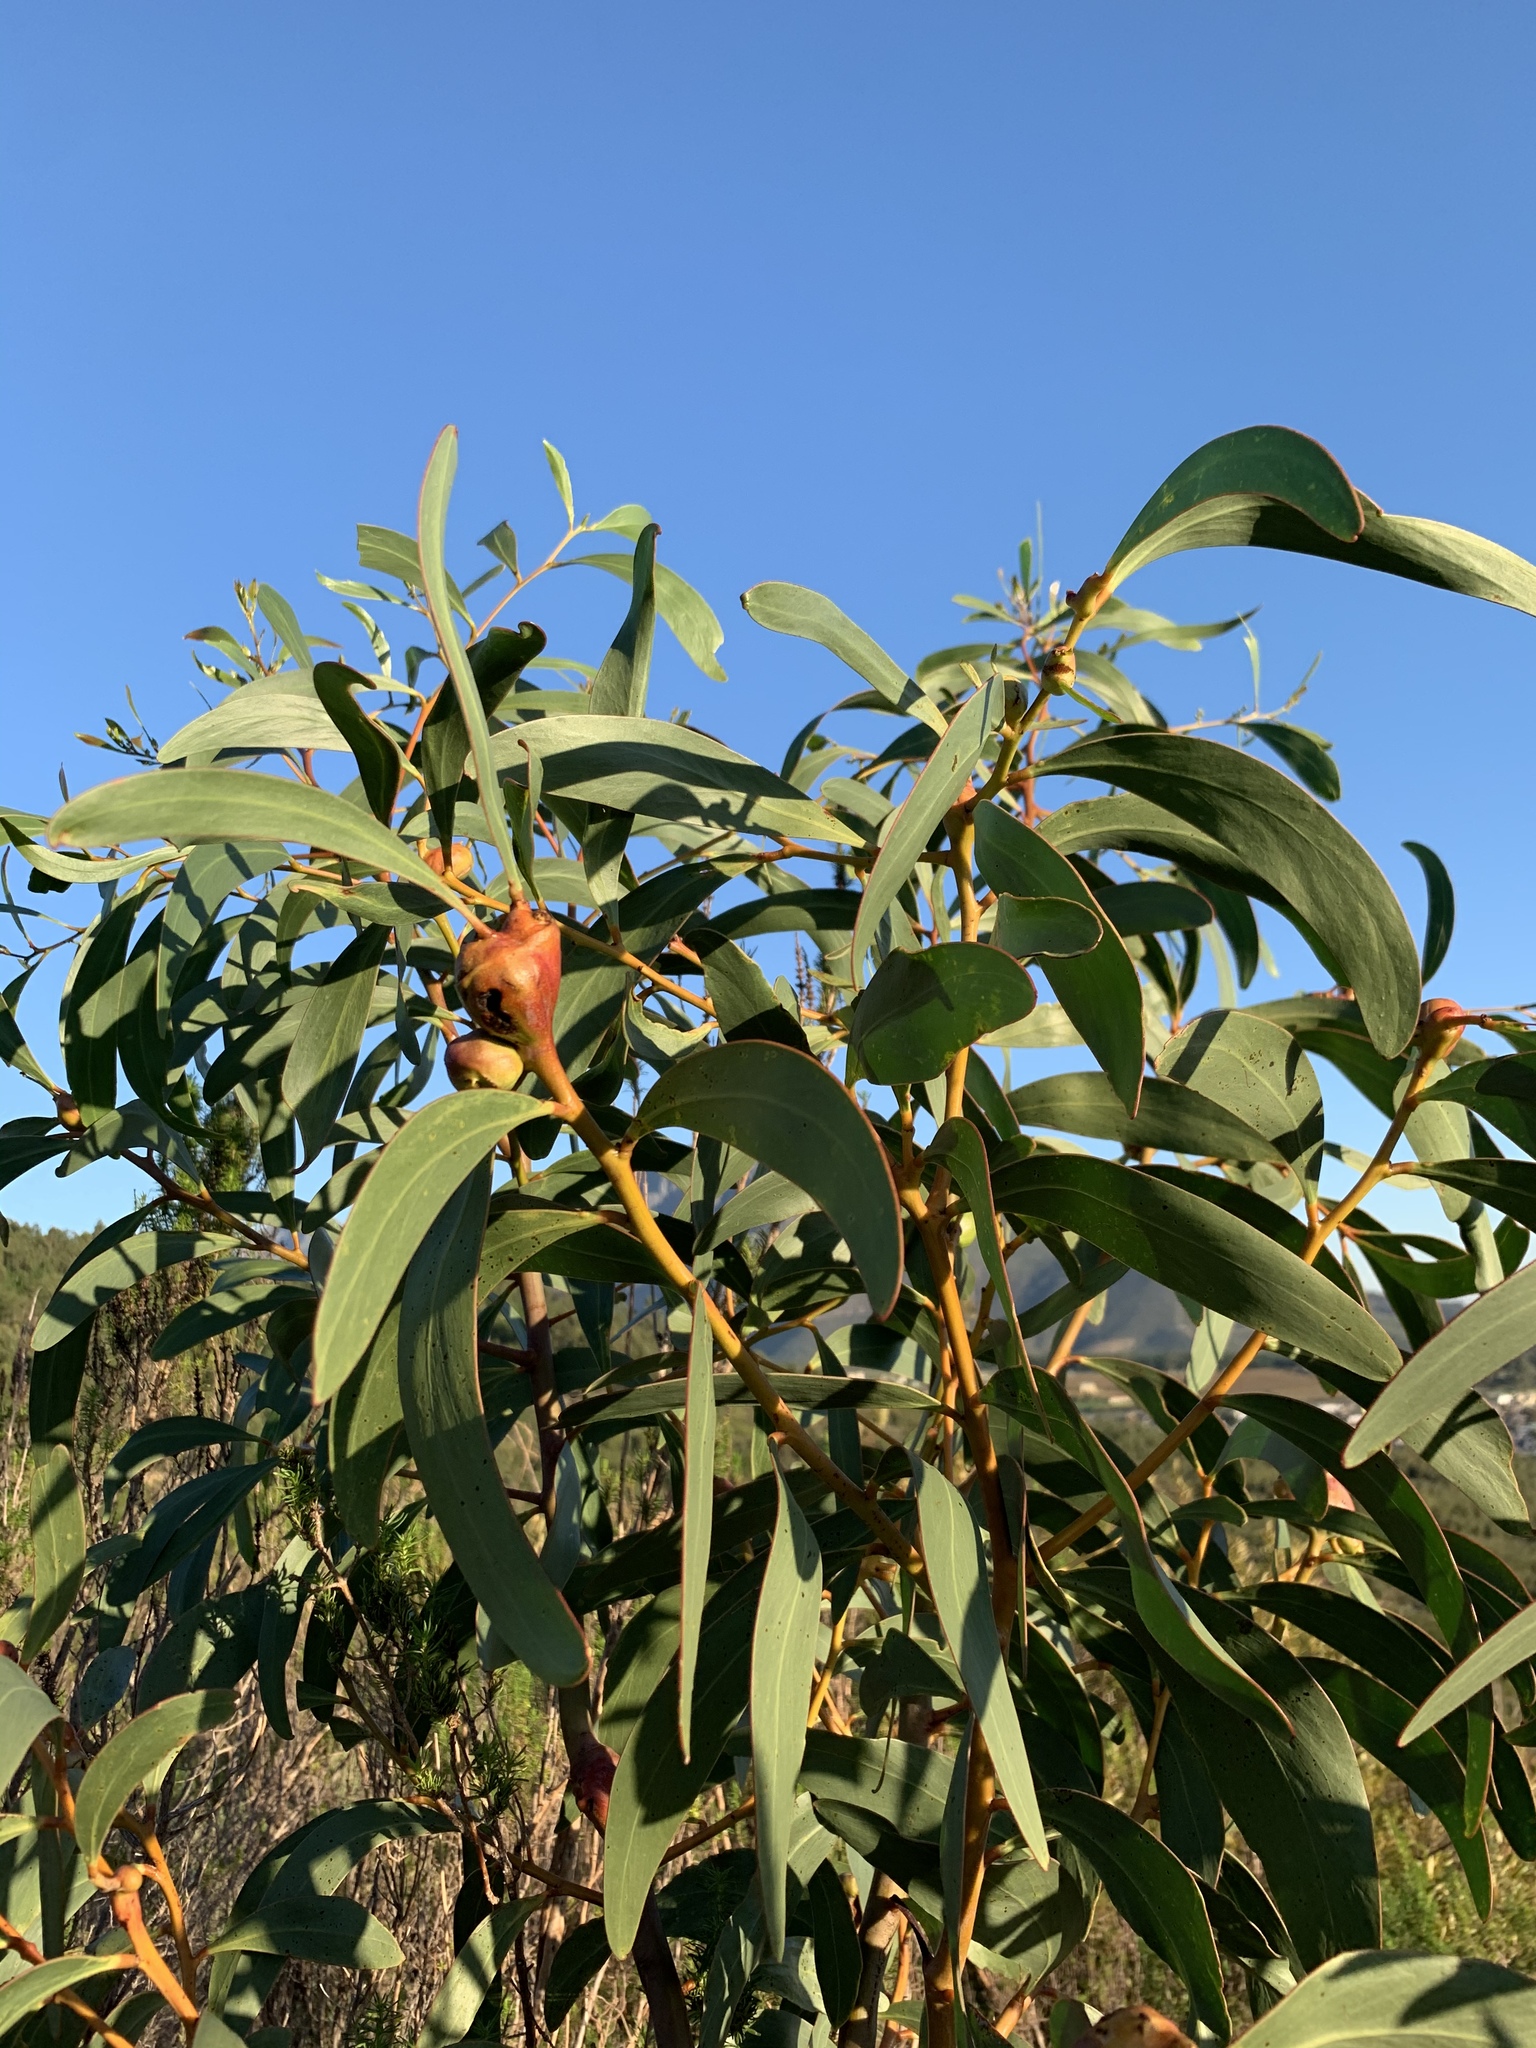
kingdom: Plantae
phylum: Tracheophyta
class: Magnoliopsida
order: Fabales
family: Fabaceae
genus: Acacia
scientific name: Acacia pycnantha
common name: Golden wattle
